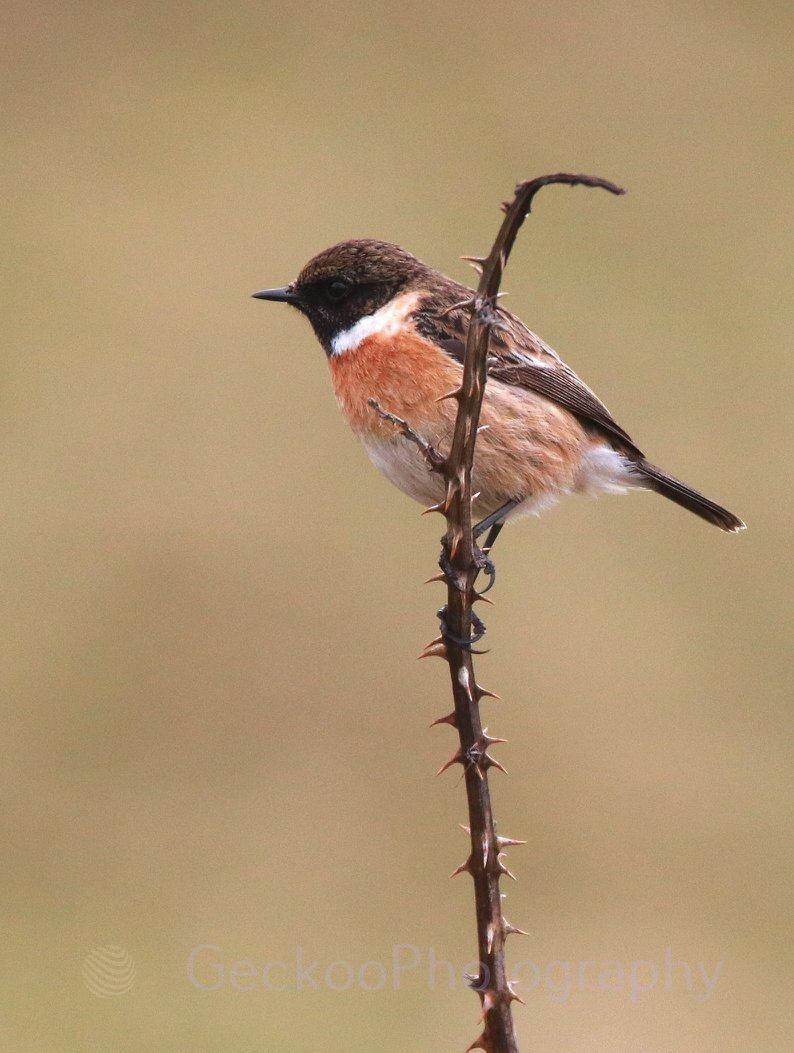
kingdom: Animalia
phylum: Chordata
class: Aves
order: Passeriformes
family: Muscicapidae
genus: Saxicola
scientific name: Saxicola rubicola
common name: European stonechat
